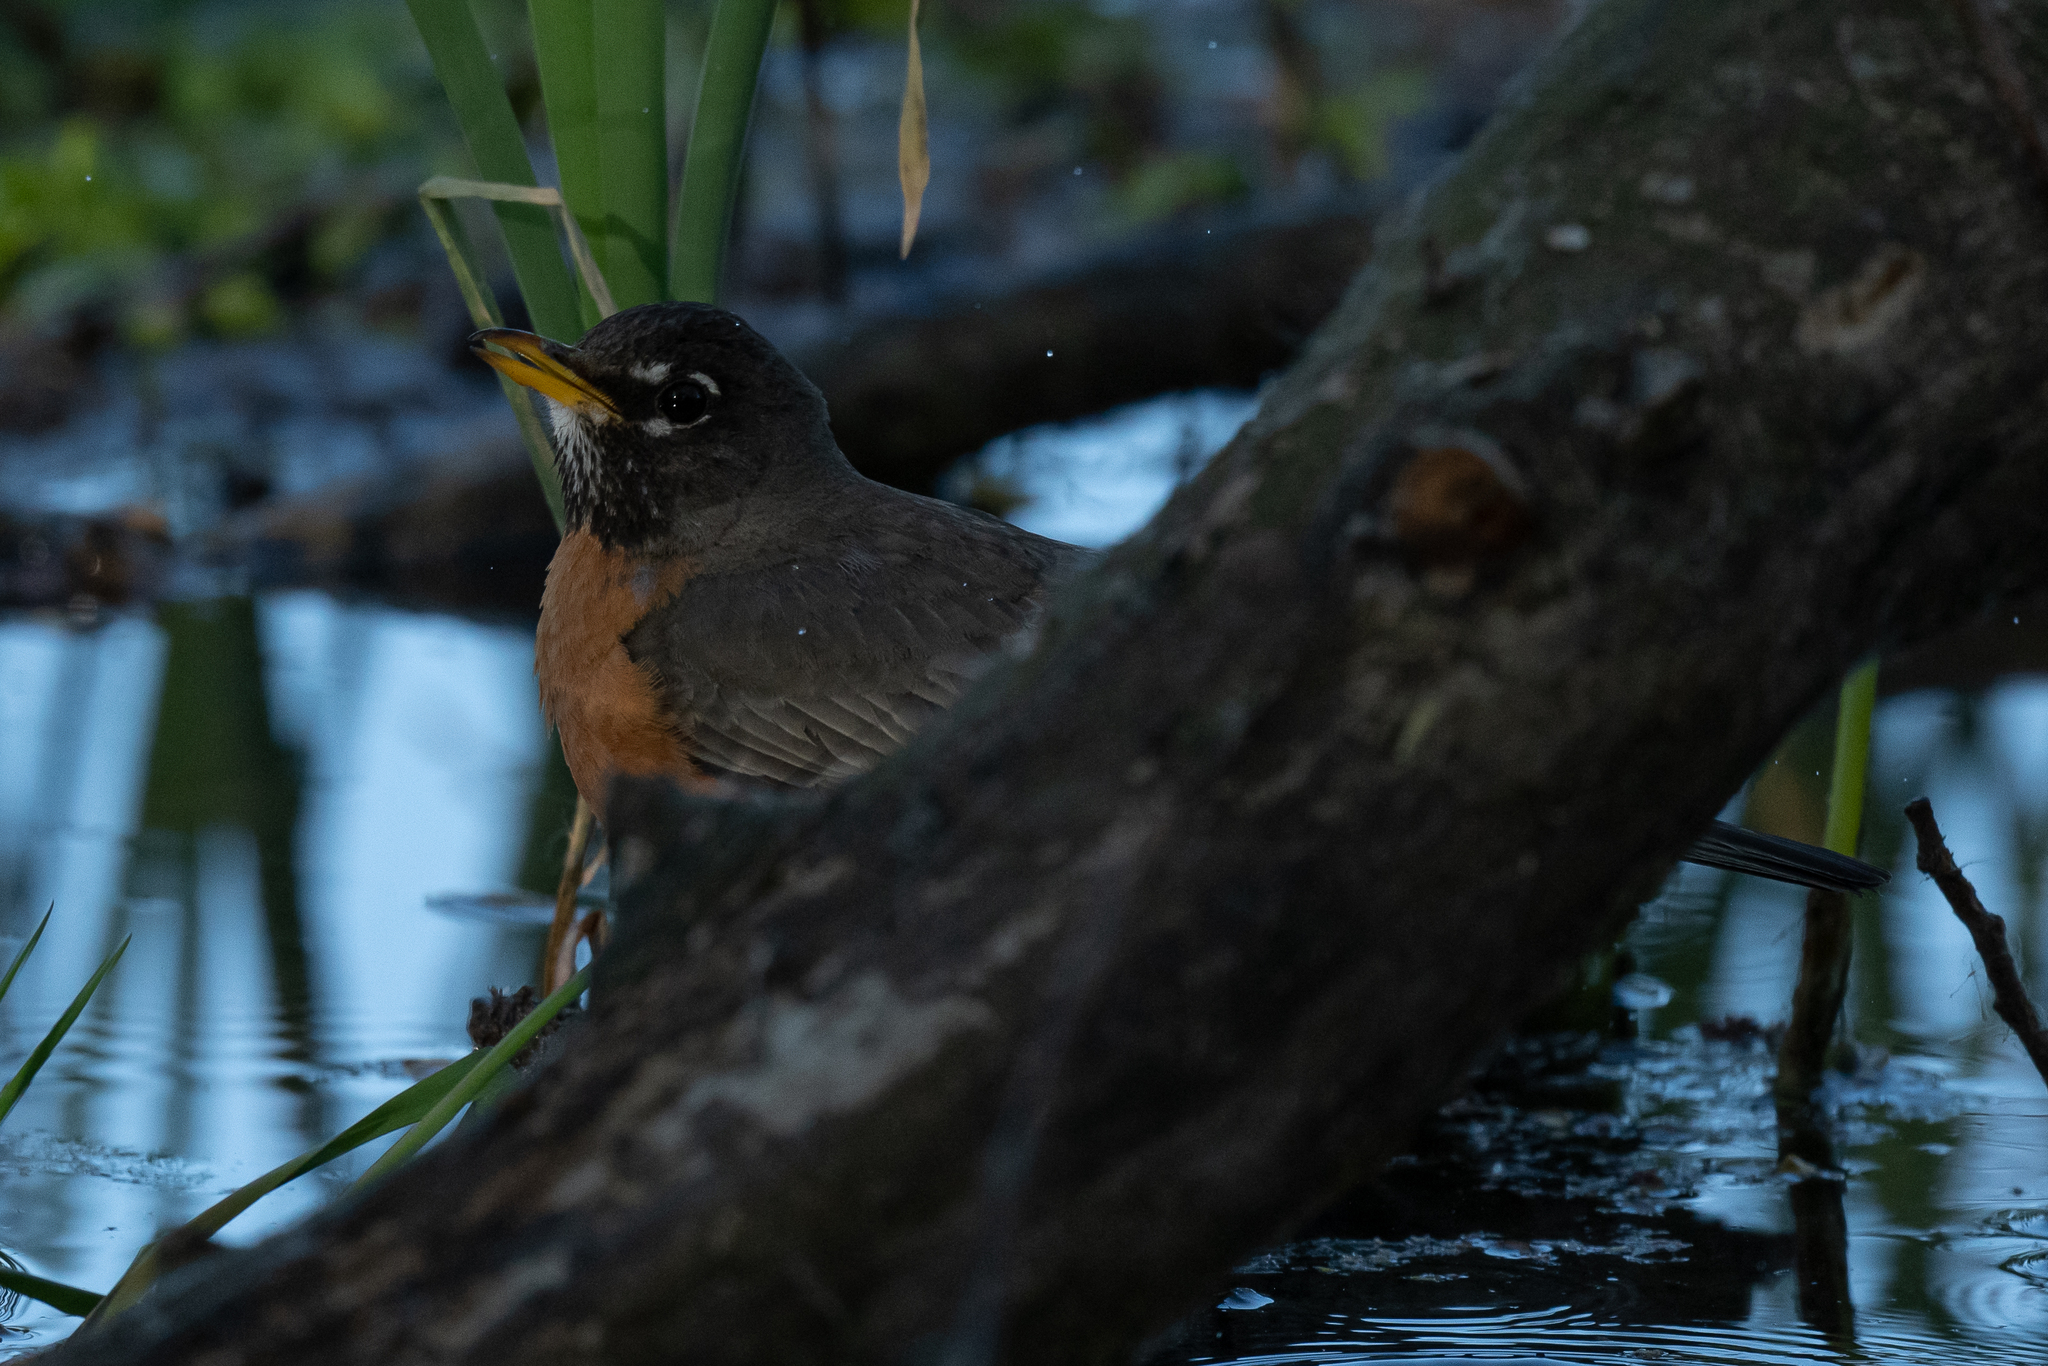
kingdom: Animalia
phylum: Chordata
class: Aves
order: Passeriformes
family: Turdidae
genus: Turdus
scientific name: Turdus migratorius
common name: American robin
